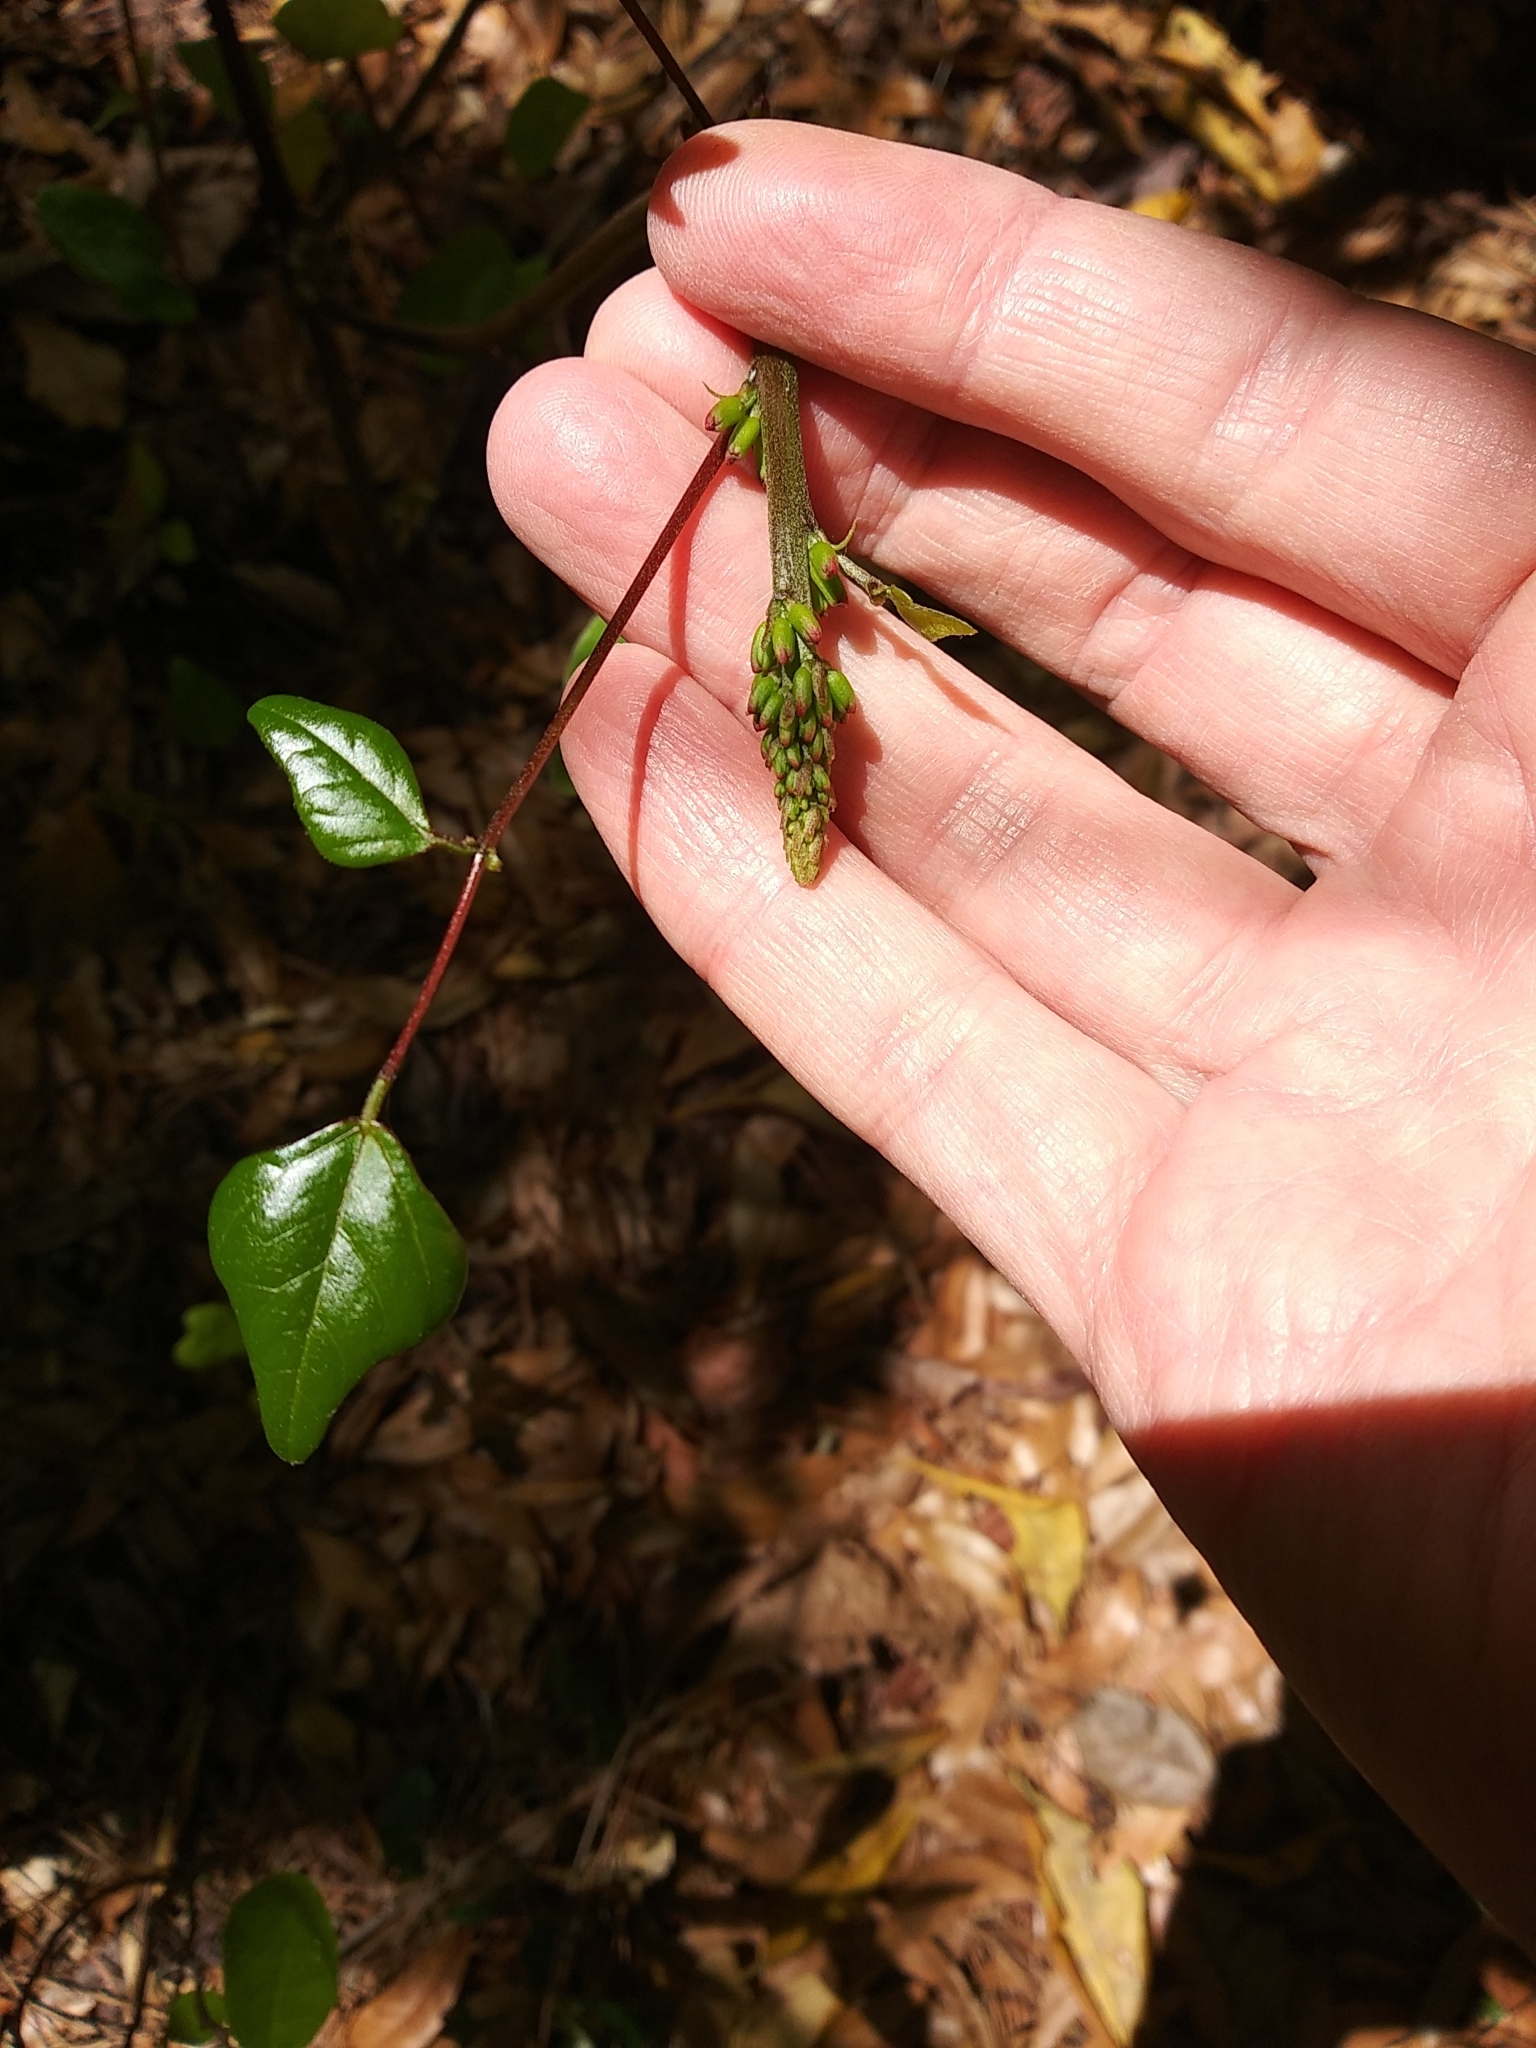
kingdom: Plantae
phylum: Tracheophyta
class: Magnoliopsida
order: Fabales
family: Fabaceae
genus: Erythrina
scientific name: Erythrina herbacea
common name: Coral-bean
